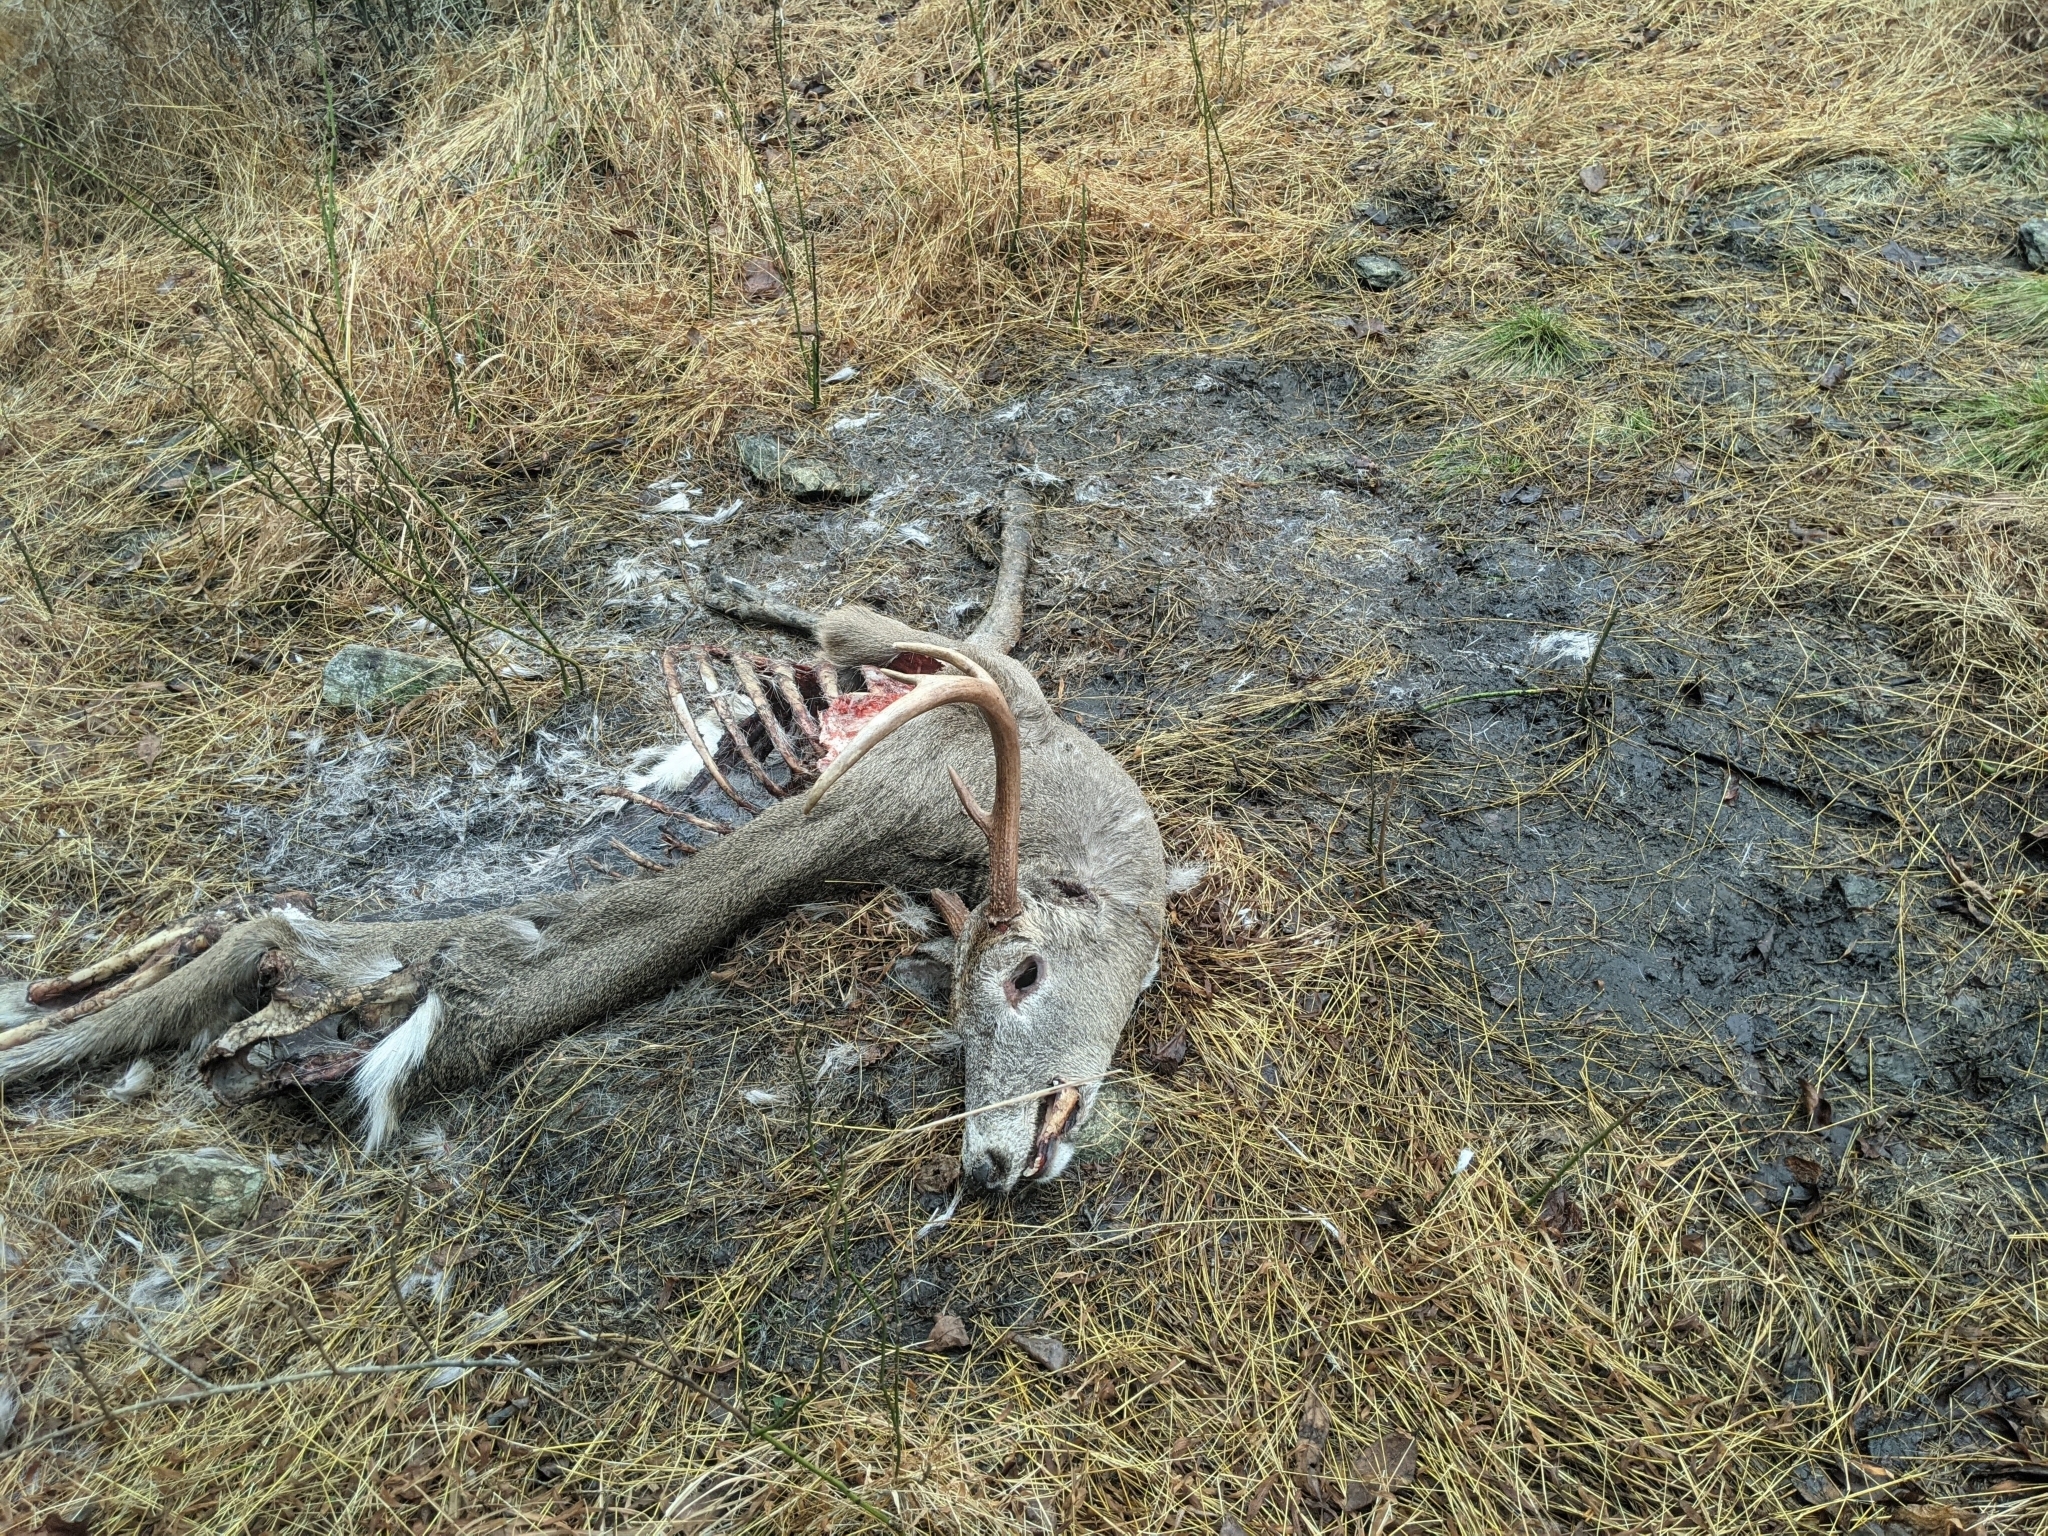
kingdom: Animalia
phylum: Chordata
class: Mammalia
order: Artiodactyla
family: Cervidae
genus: Odocoileus
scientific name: Odocoileus virginianus
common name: White-tailed deer
